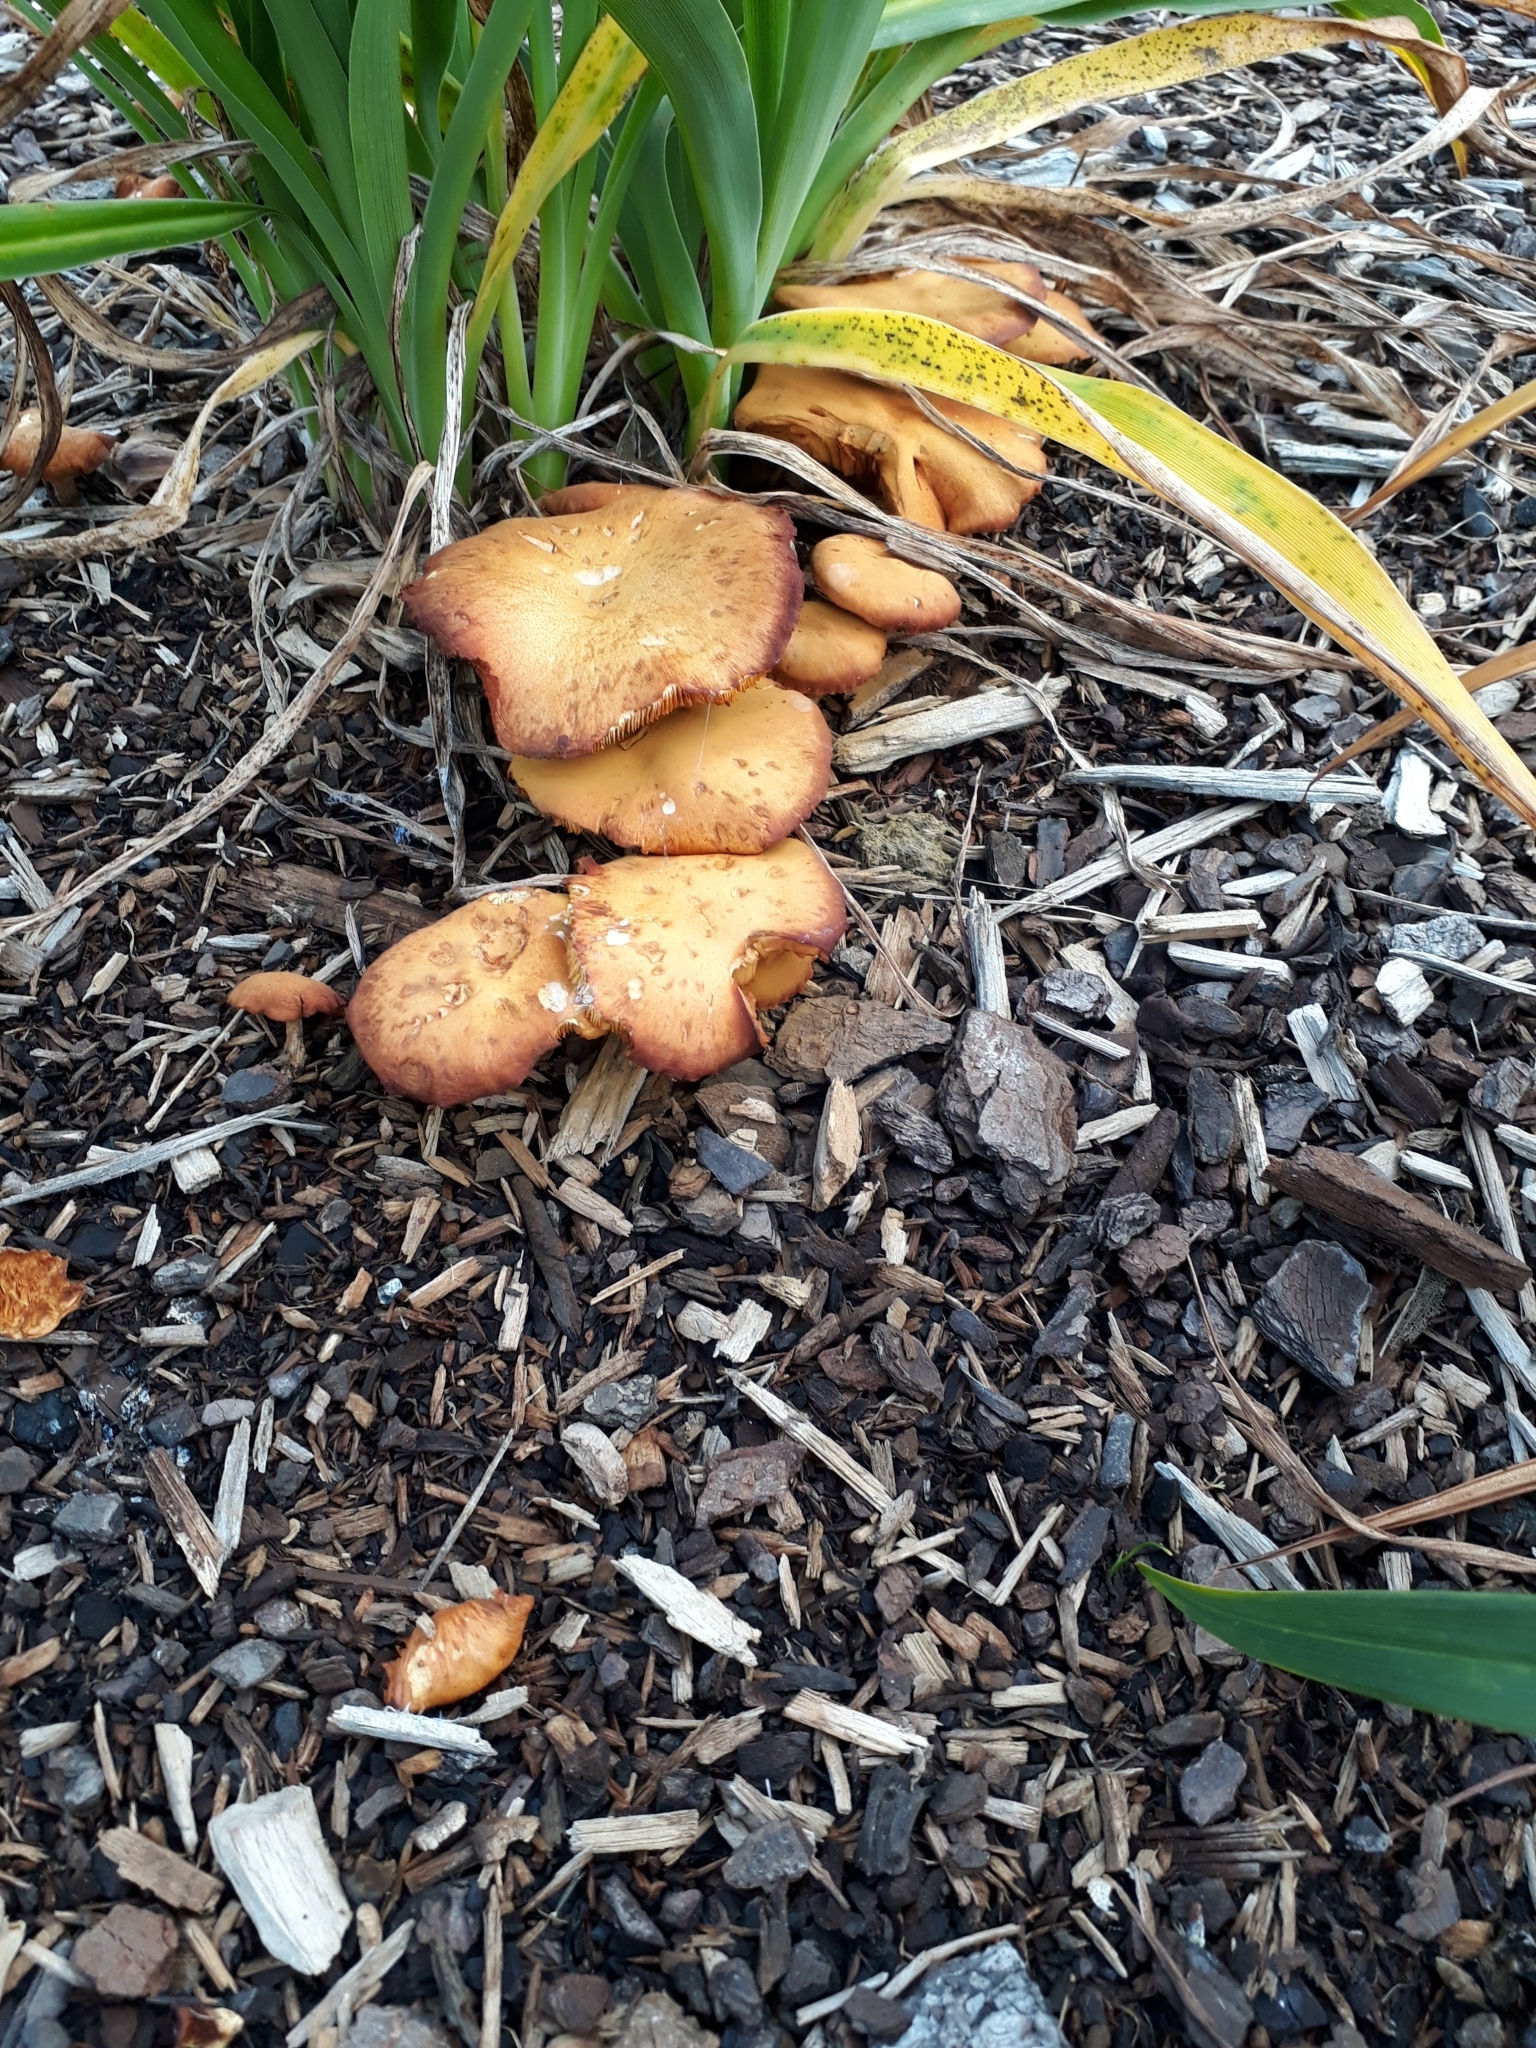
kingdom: Fungi
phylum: Basidiomycota
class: Agaricomycetes
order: Agaricales
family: Hymenogastraceae
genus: Gymnopilus
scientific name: Gymnopilus junonius
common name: Spectacular rustgill
